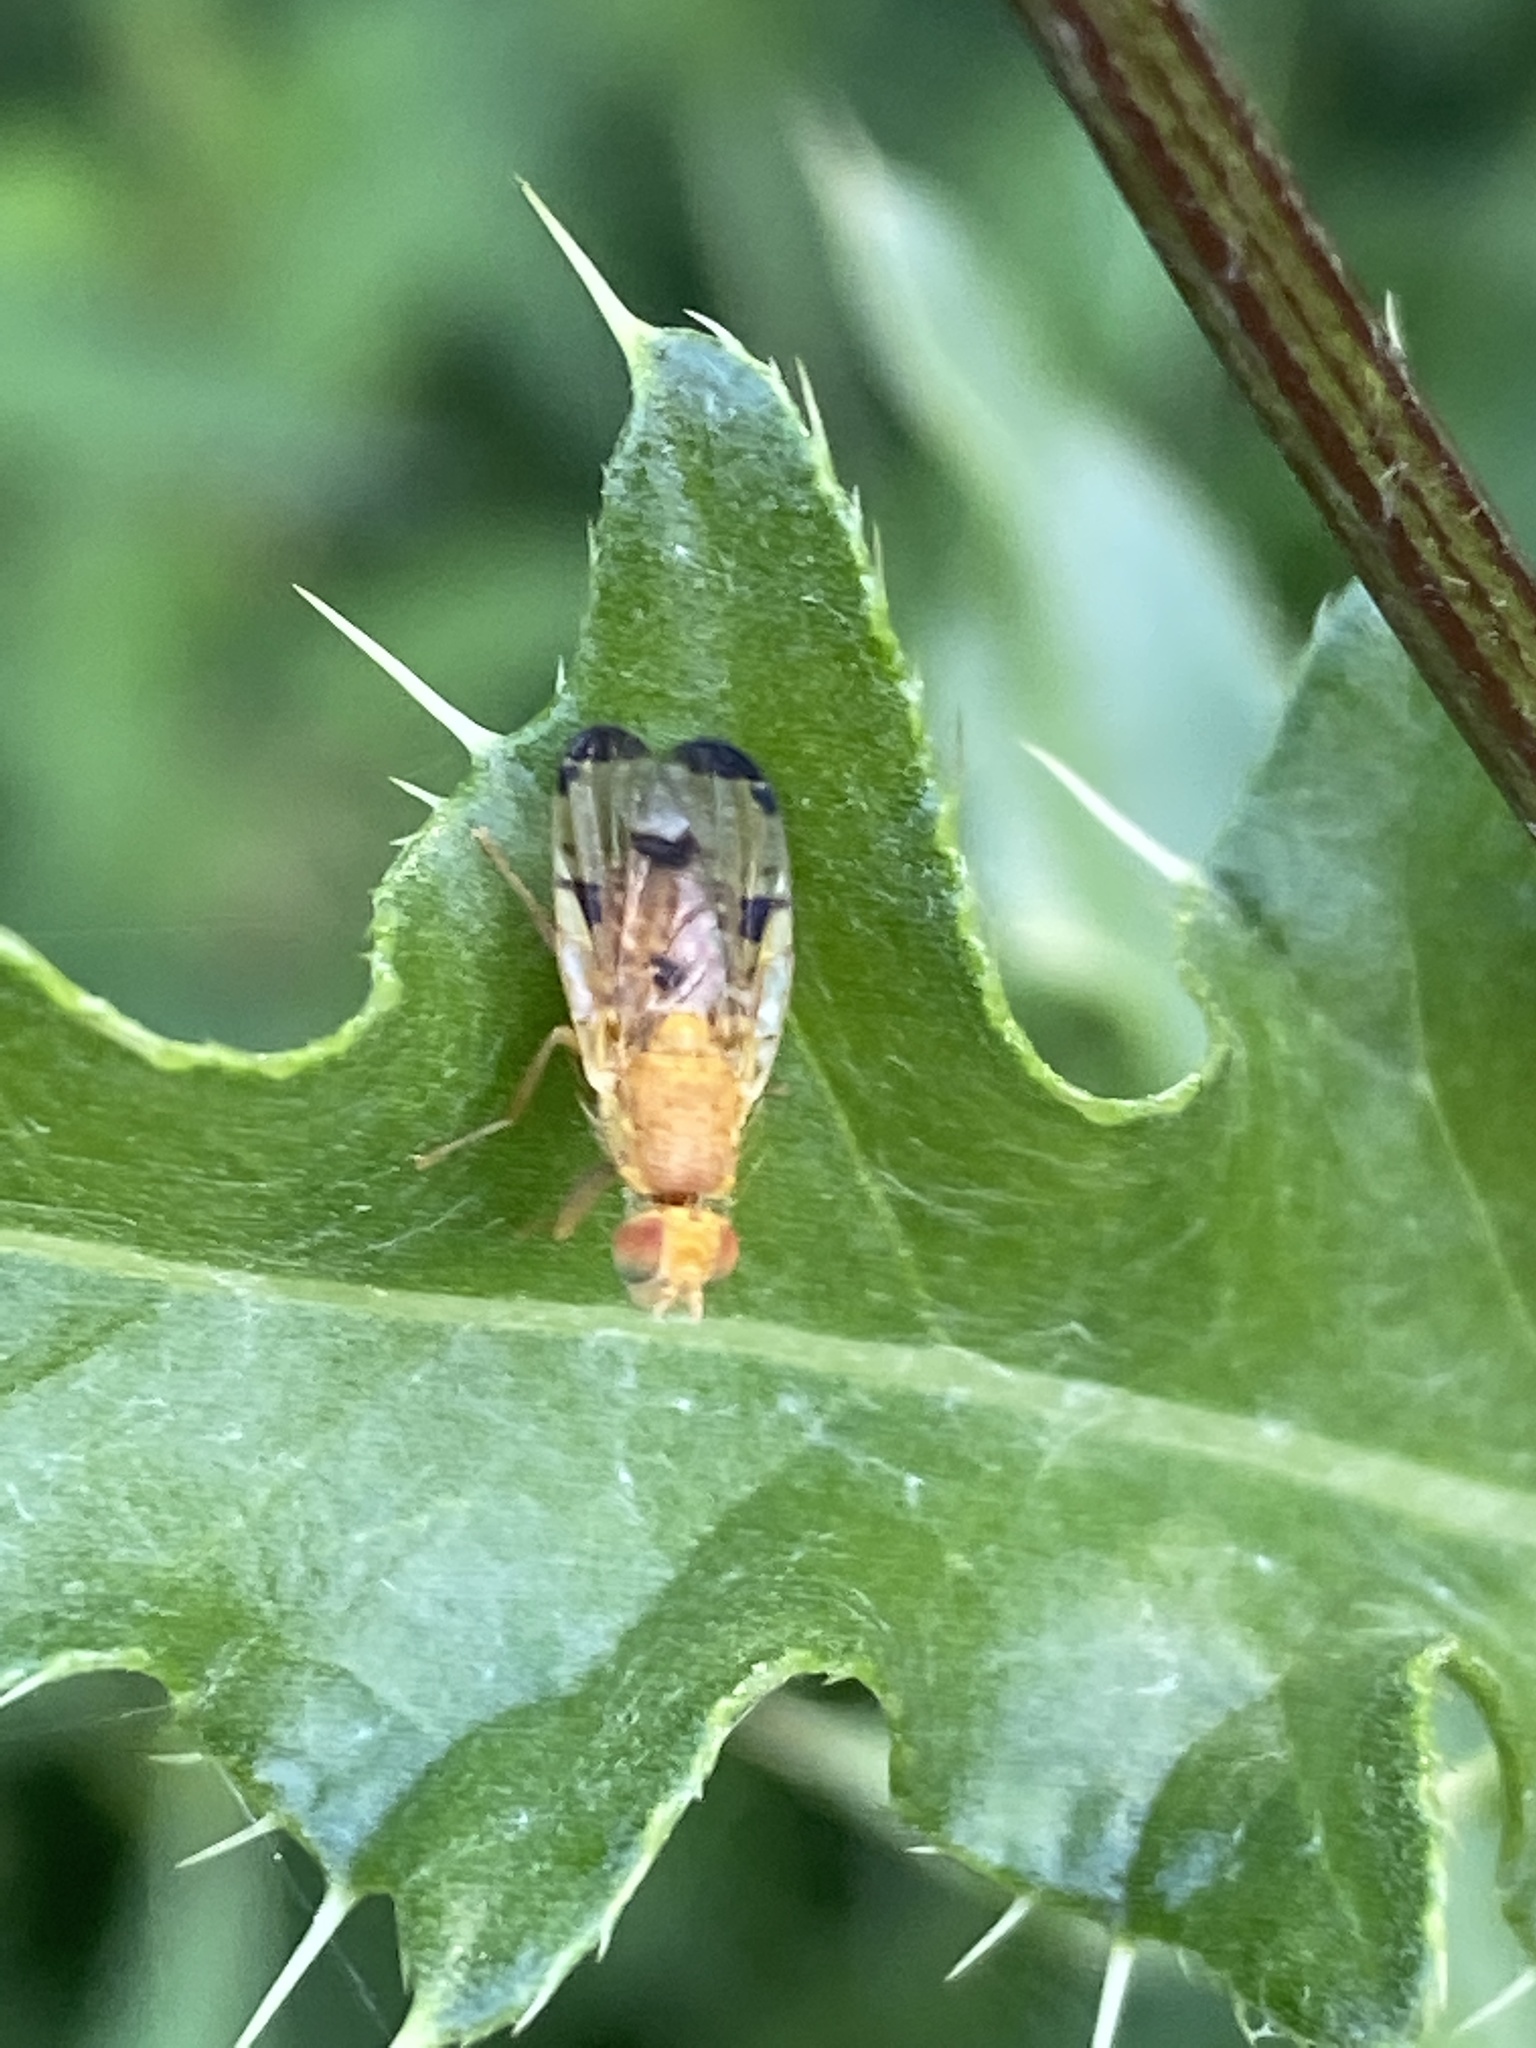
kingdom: Animalia
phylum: Arthropoda
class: Insecta
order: Diptera
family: Tephritidae
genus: Xyphosia
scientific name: Xyphosia miliaria
